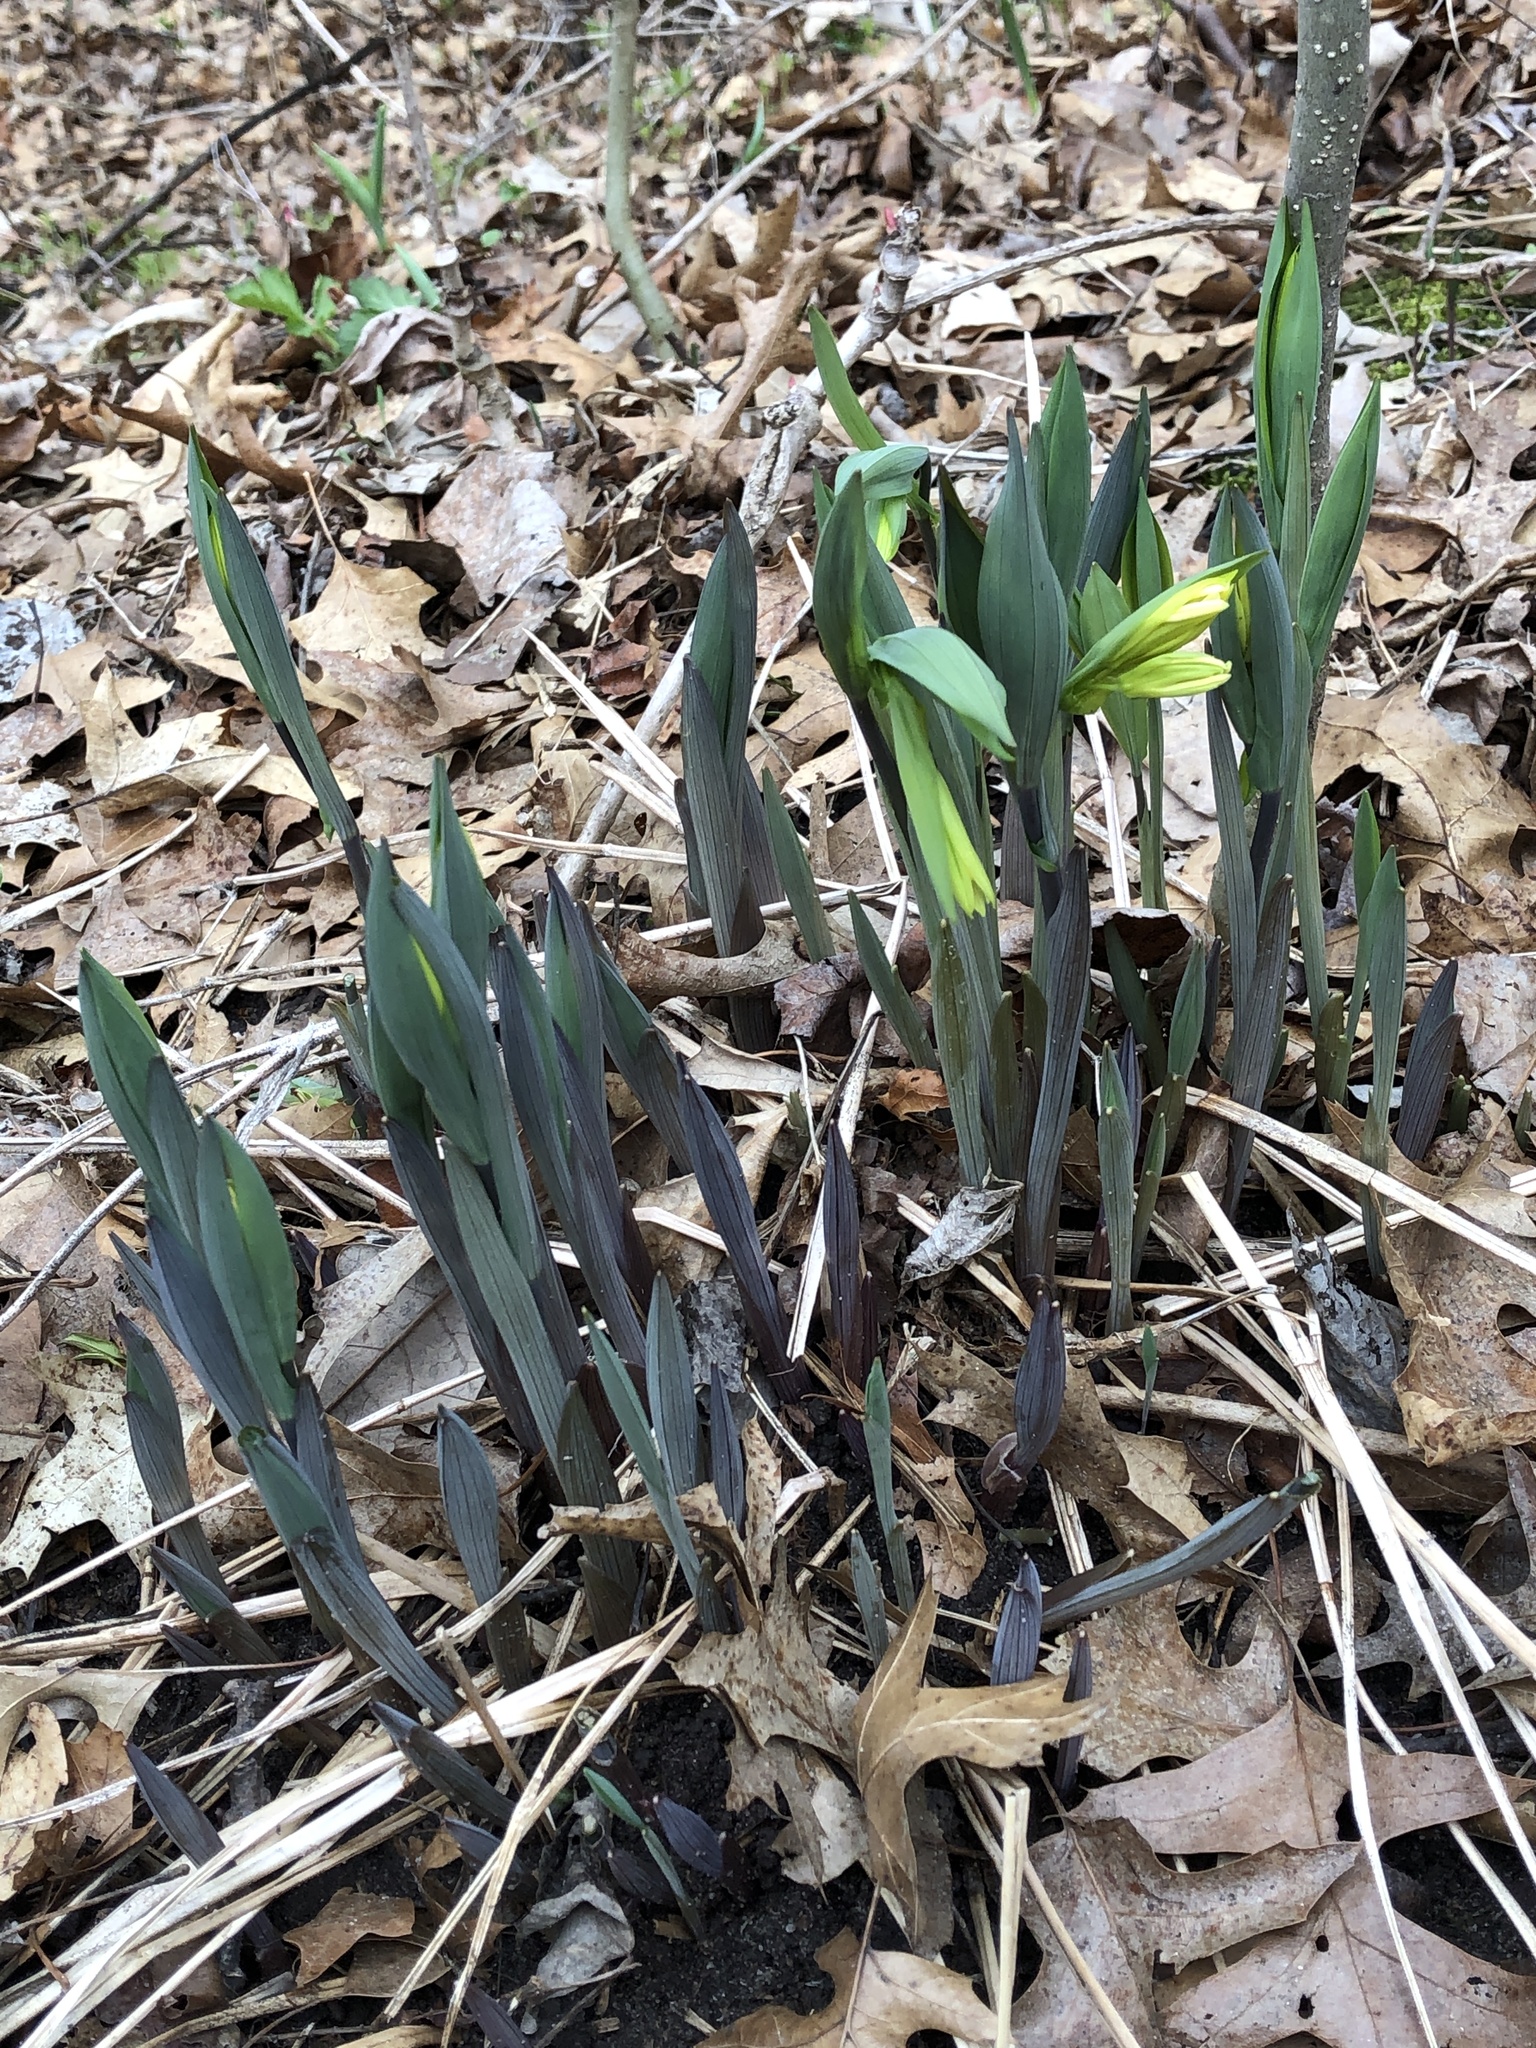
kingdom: Plantae
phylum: Tracheophyta
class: Liliopsida
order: Liliales
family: Colchicaceae
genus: Uvularia
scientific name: Uvularia grandiflora
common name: Bellwort
